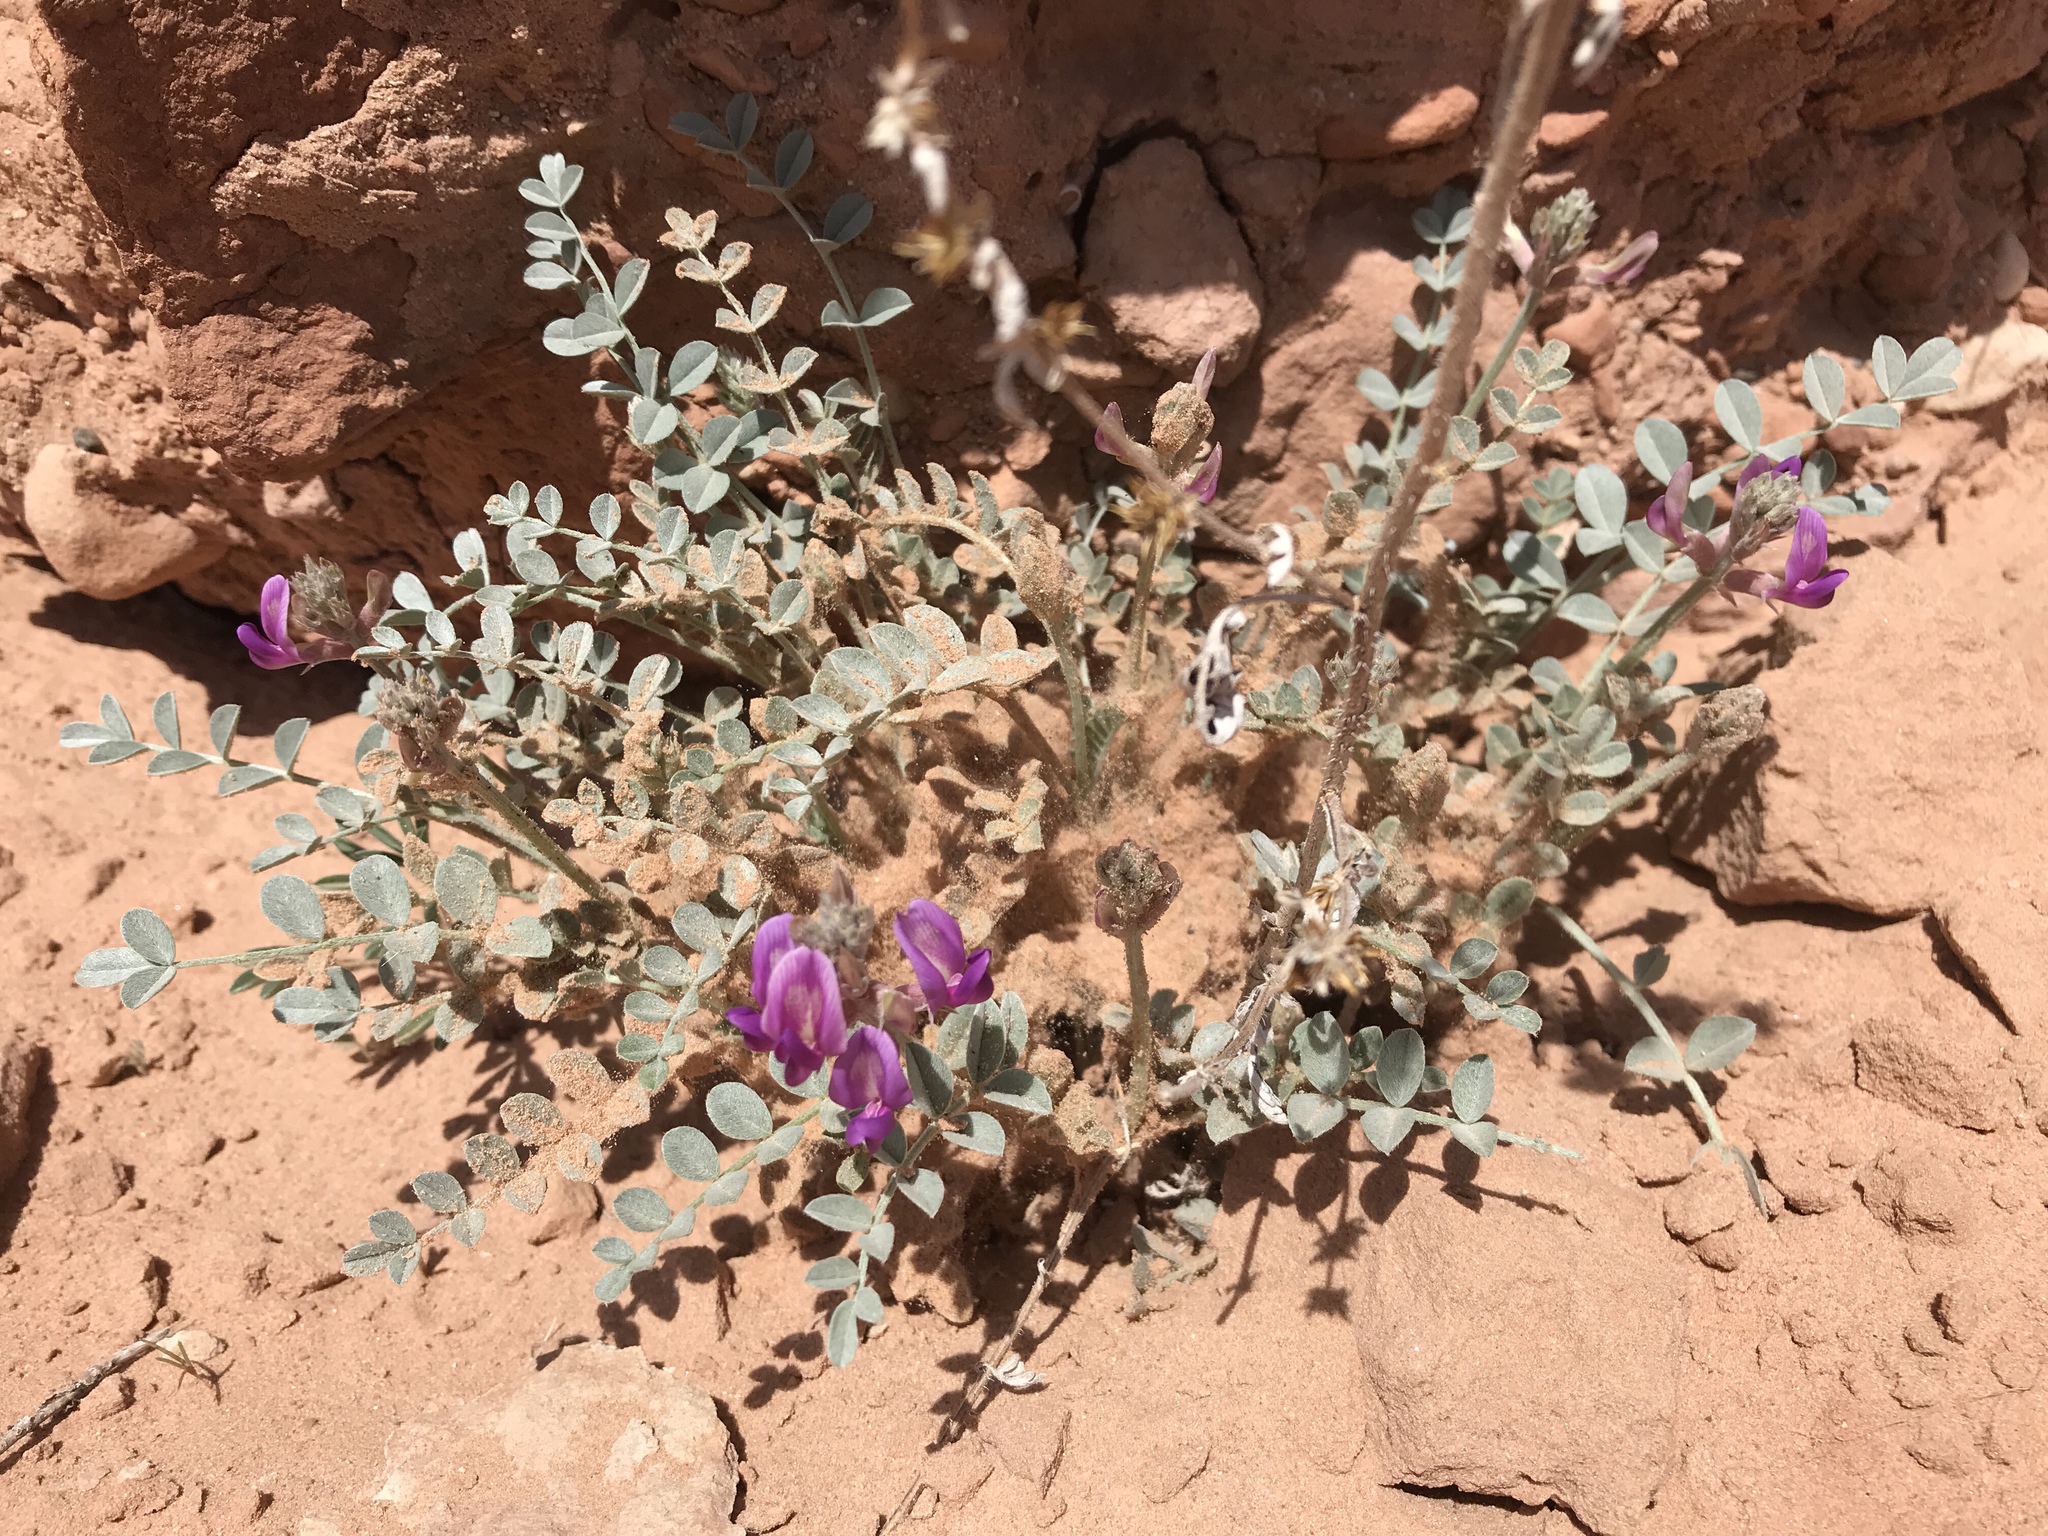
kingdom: Plantae
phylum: Tracheophyta
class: Magnoliopsida
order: Fabales
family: Fabaceae
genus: Astragalus
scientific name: Astragalus amphioxys
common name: Crescent milk-vetch
